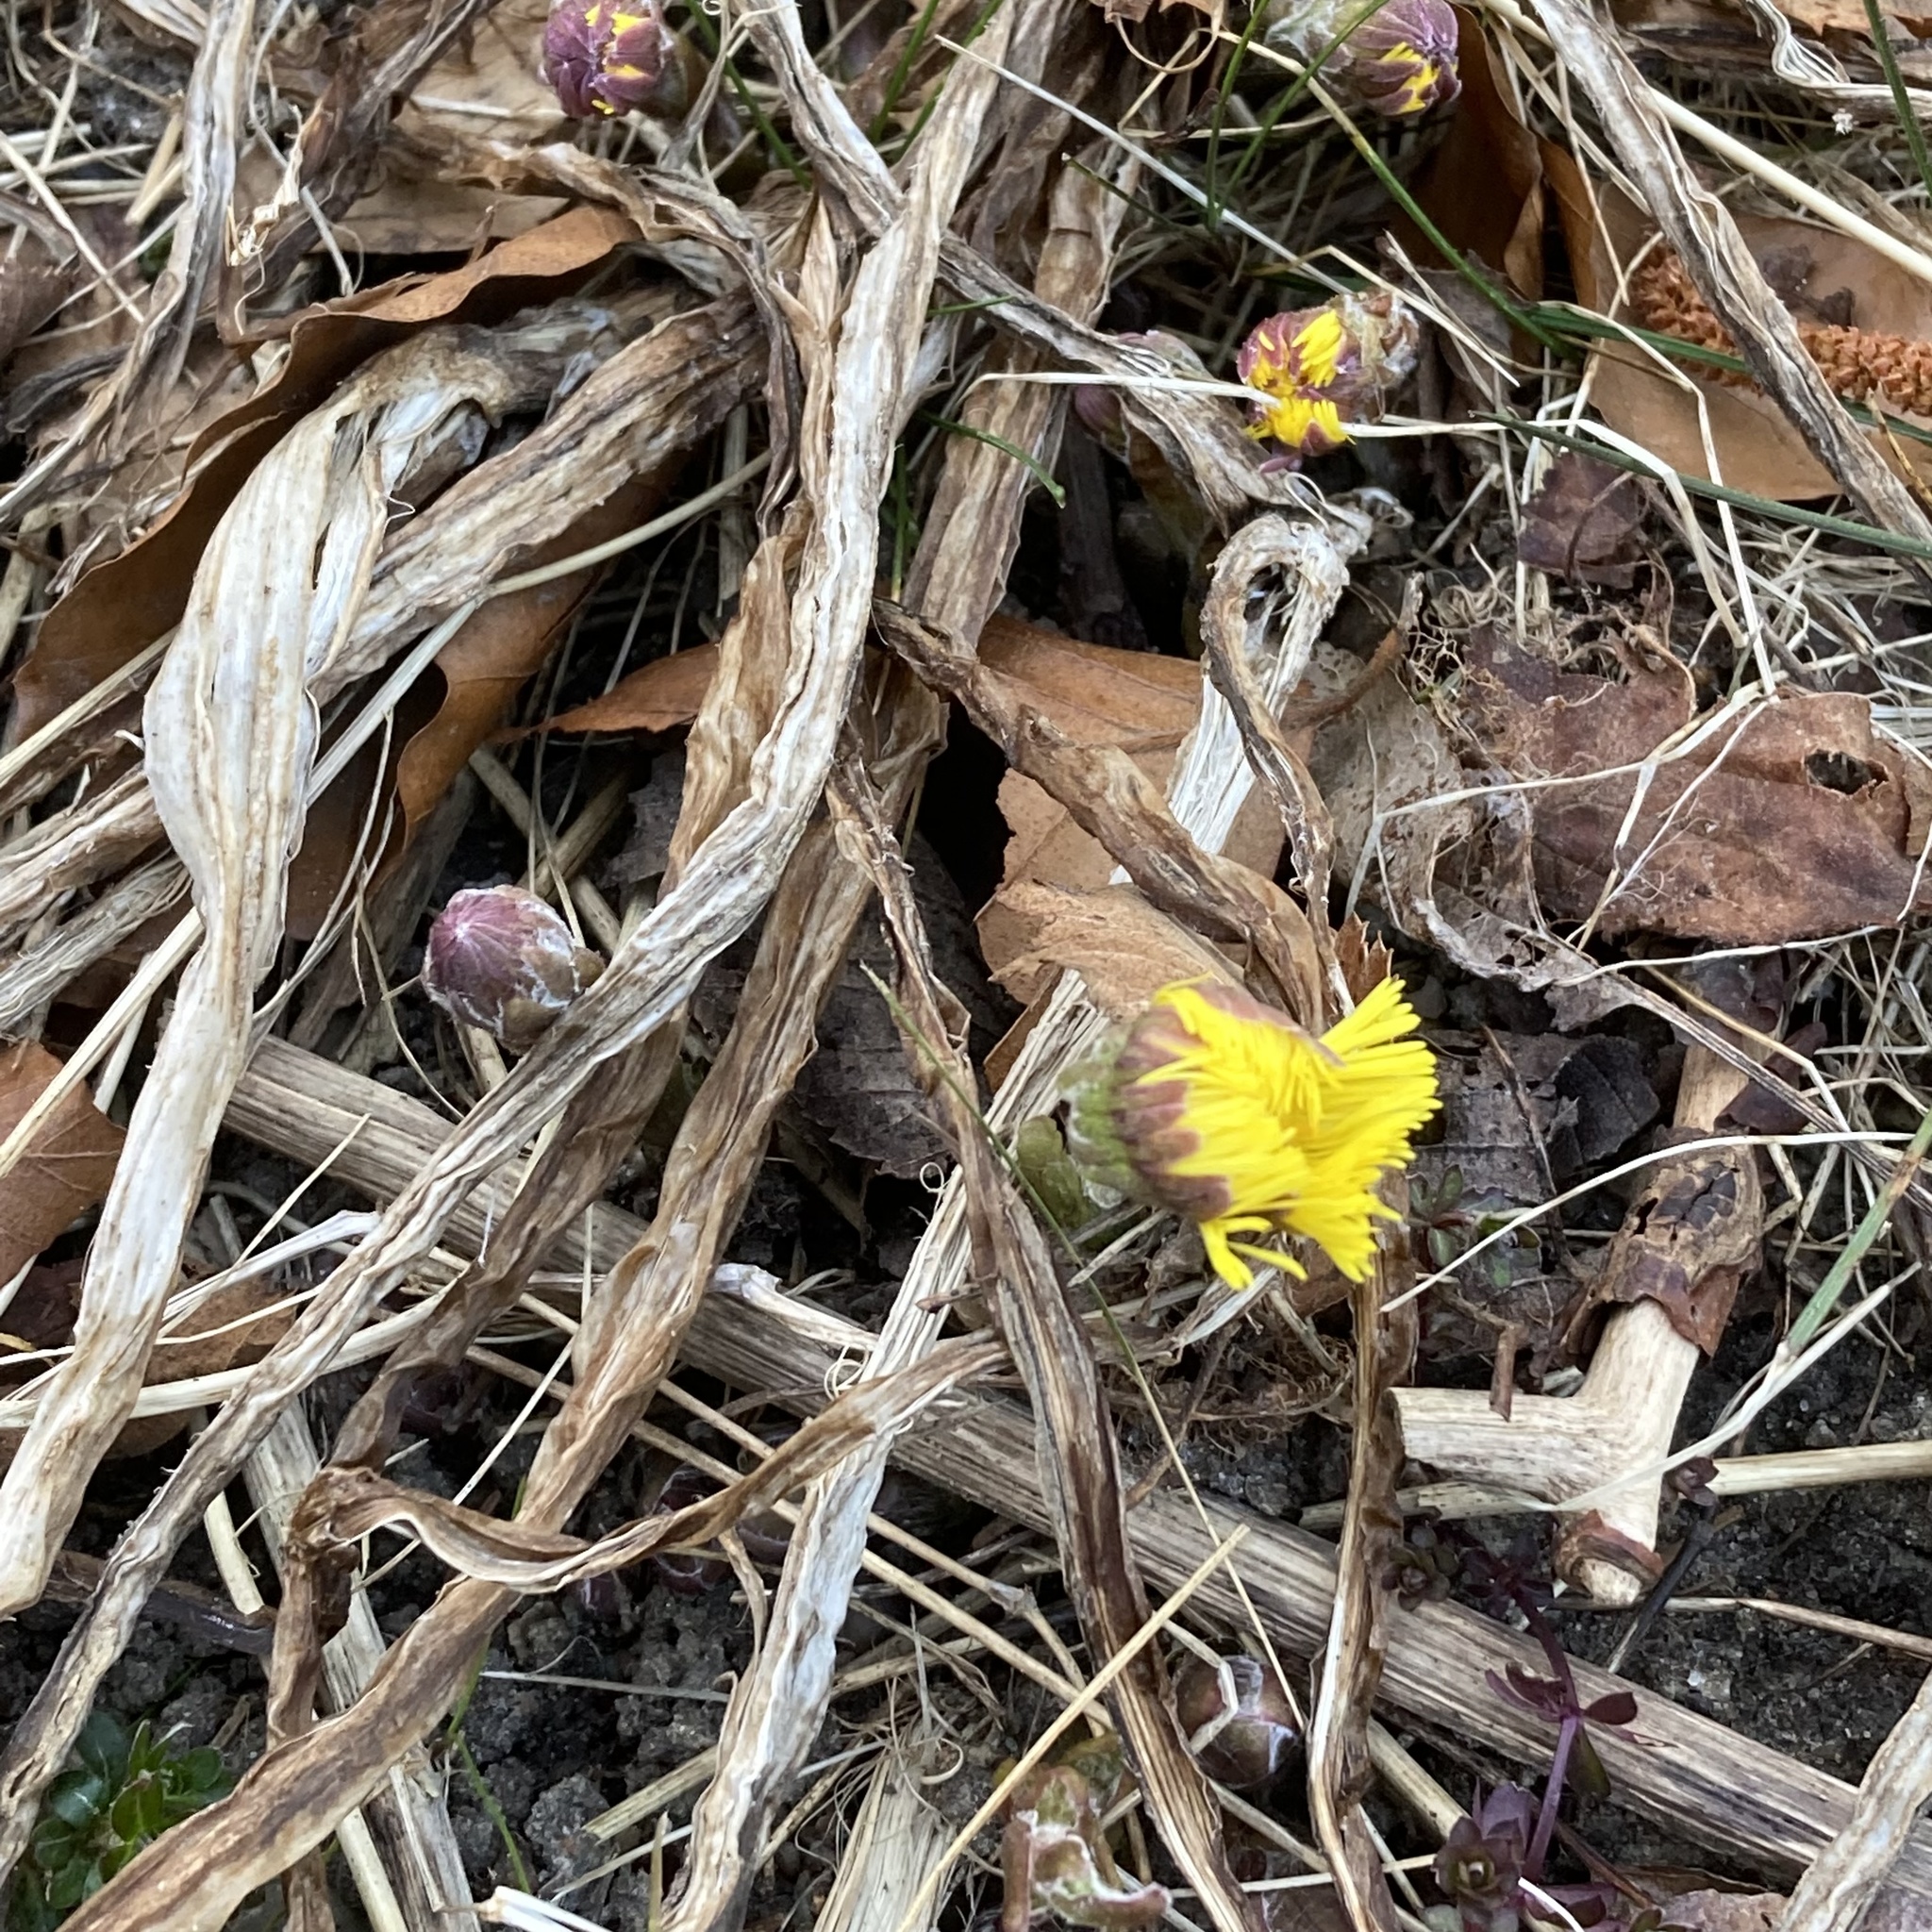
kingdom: Plantae
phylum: Tracheophyta
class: Magnoliopsida
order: Asterales
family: Asteraceae
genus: Tussilago
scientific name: Tussilago farfara
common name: Coltsfoot
